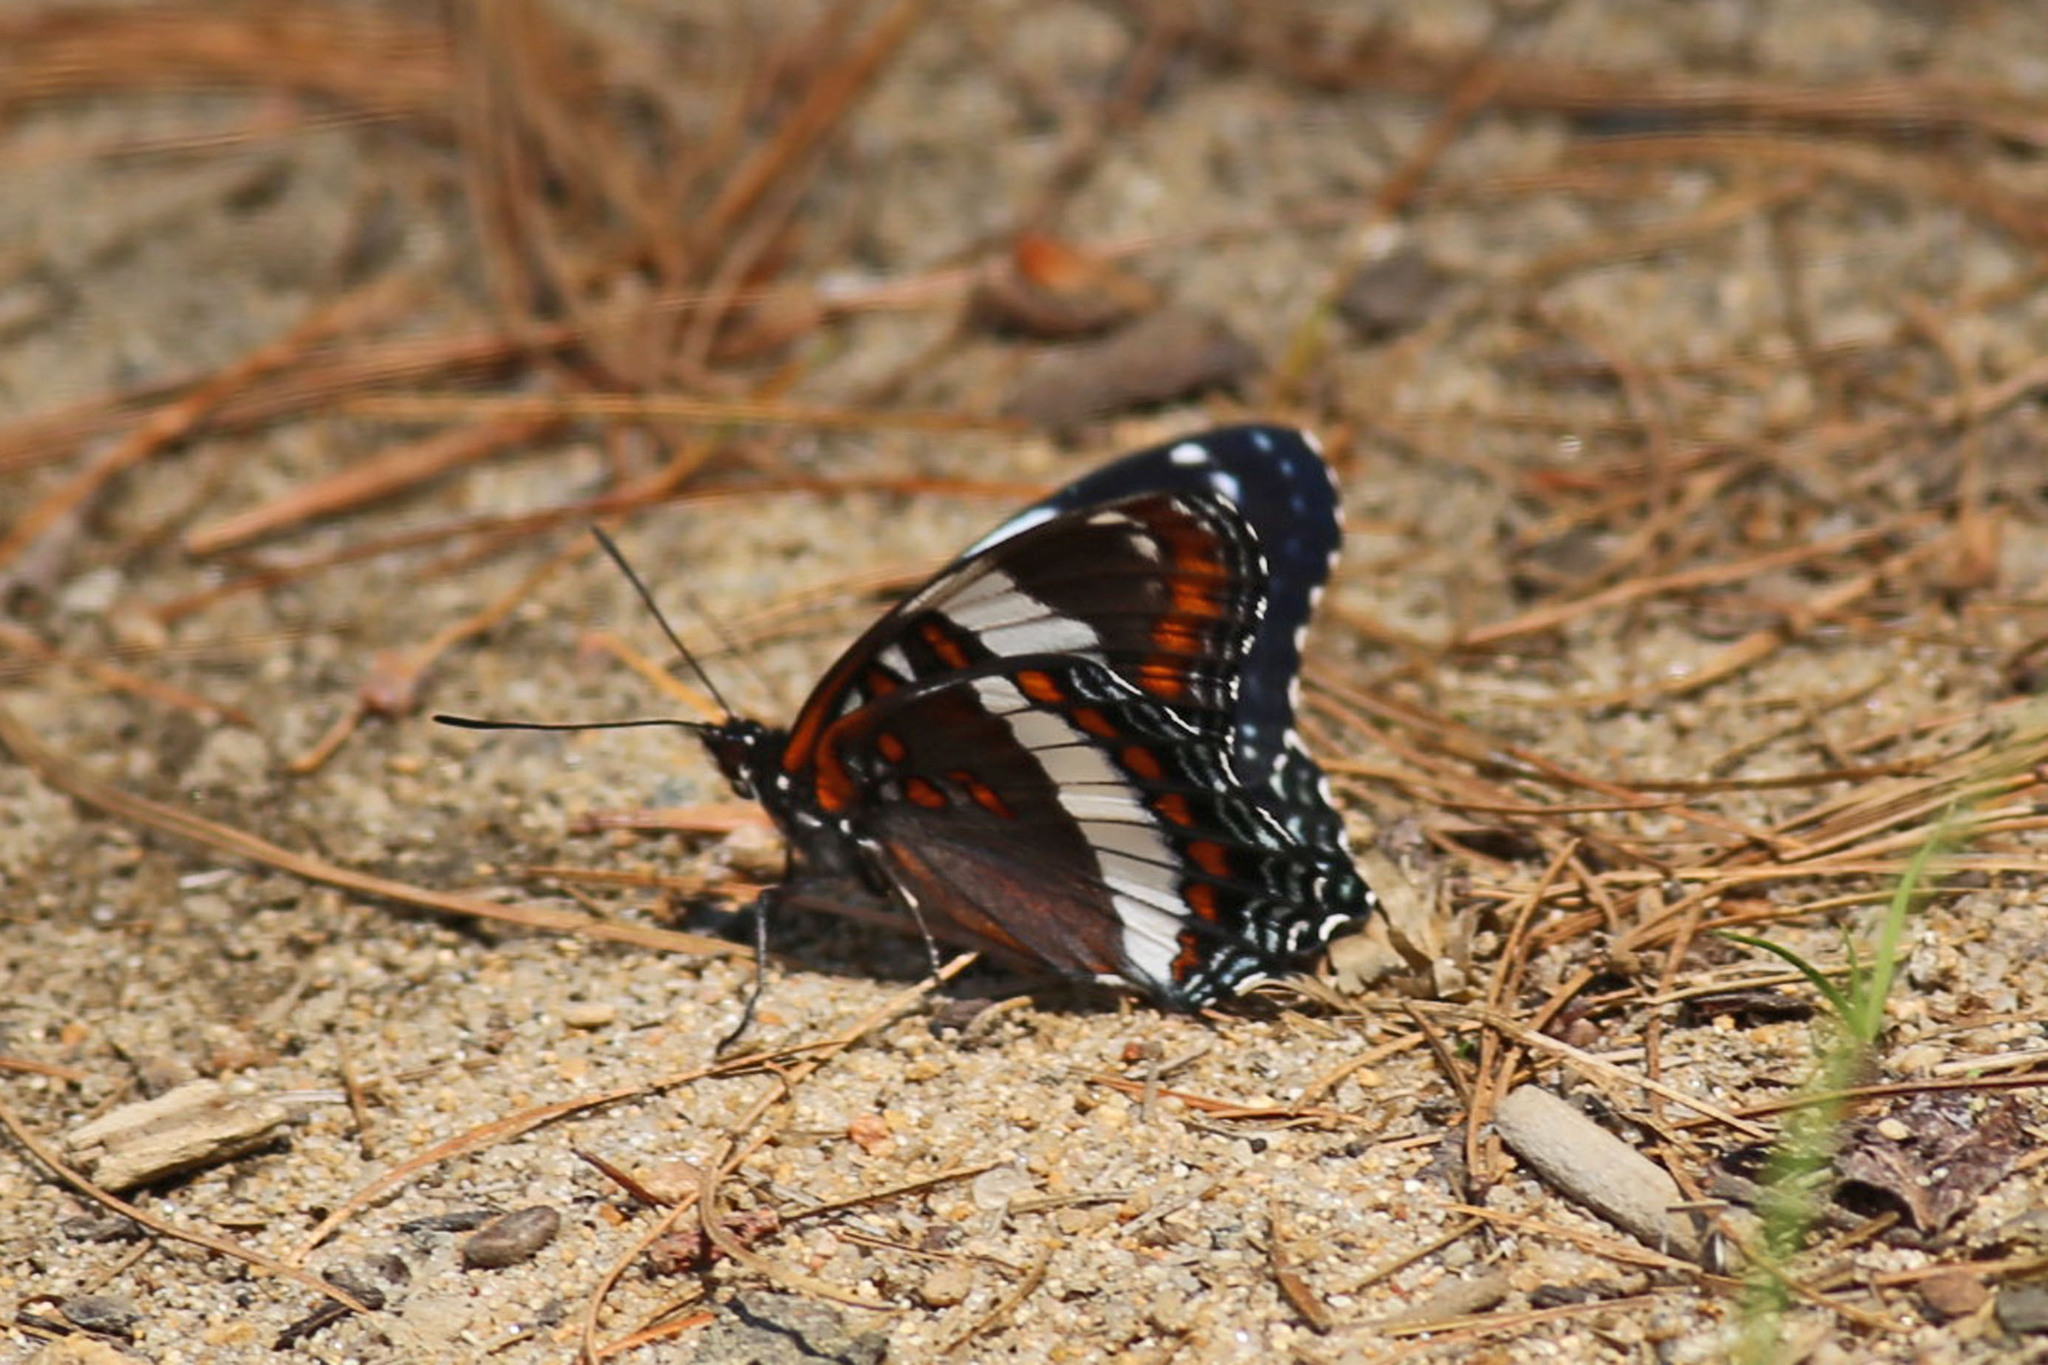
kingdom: Animalia
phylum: Arthropoda
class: Insecta
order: Lepidoptera
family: Nymphalidae
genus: Limenitis
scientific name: Limenitis arthemis
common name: Red-spotted admiral
